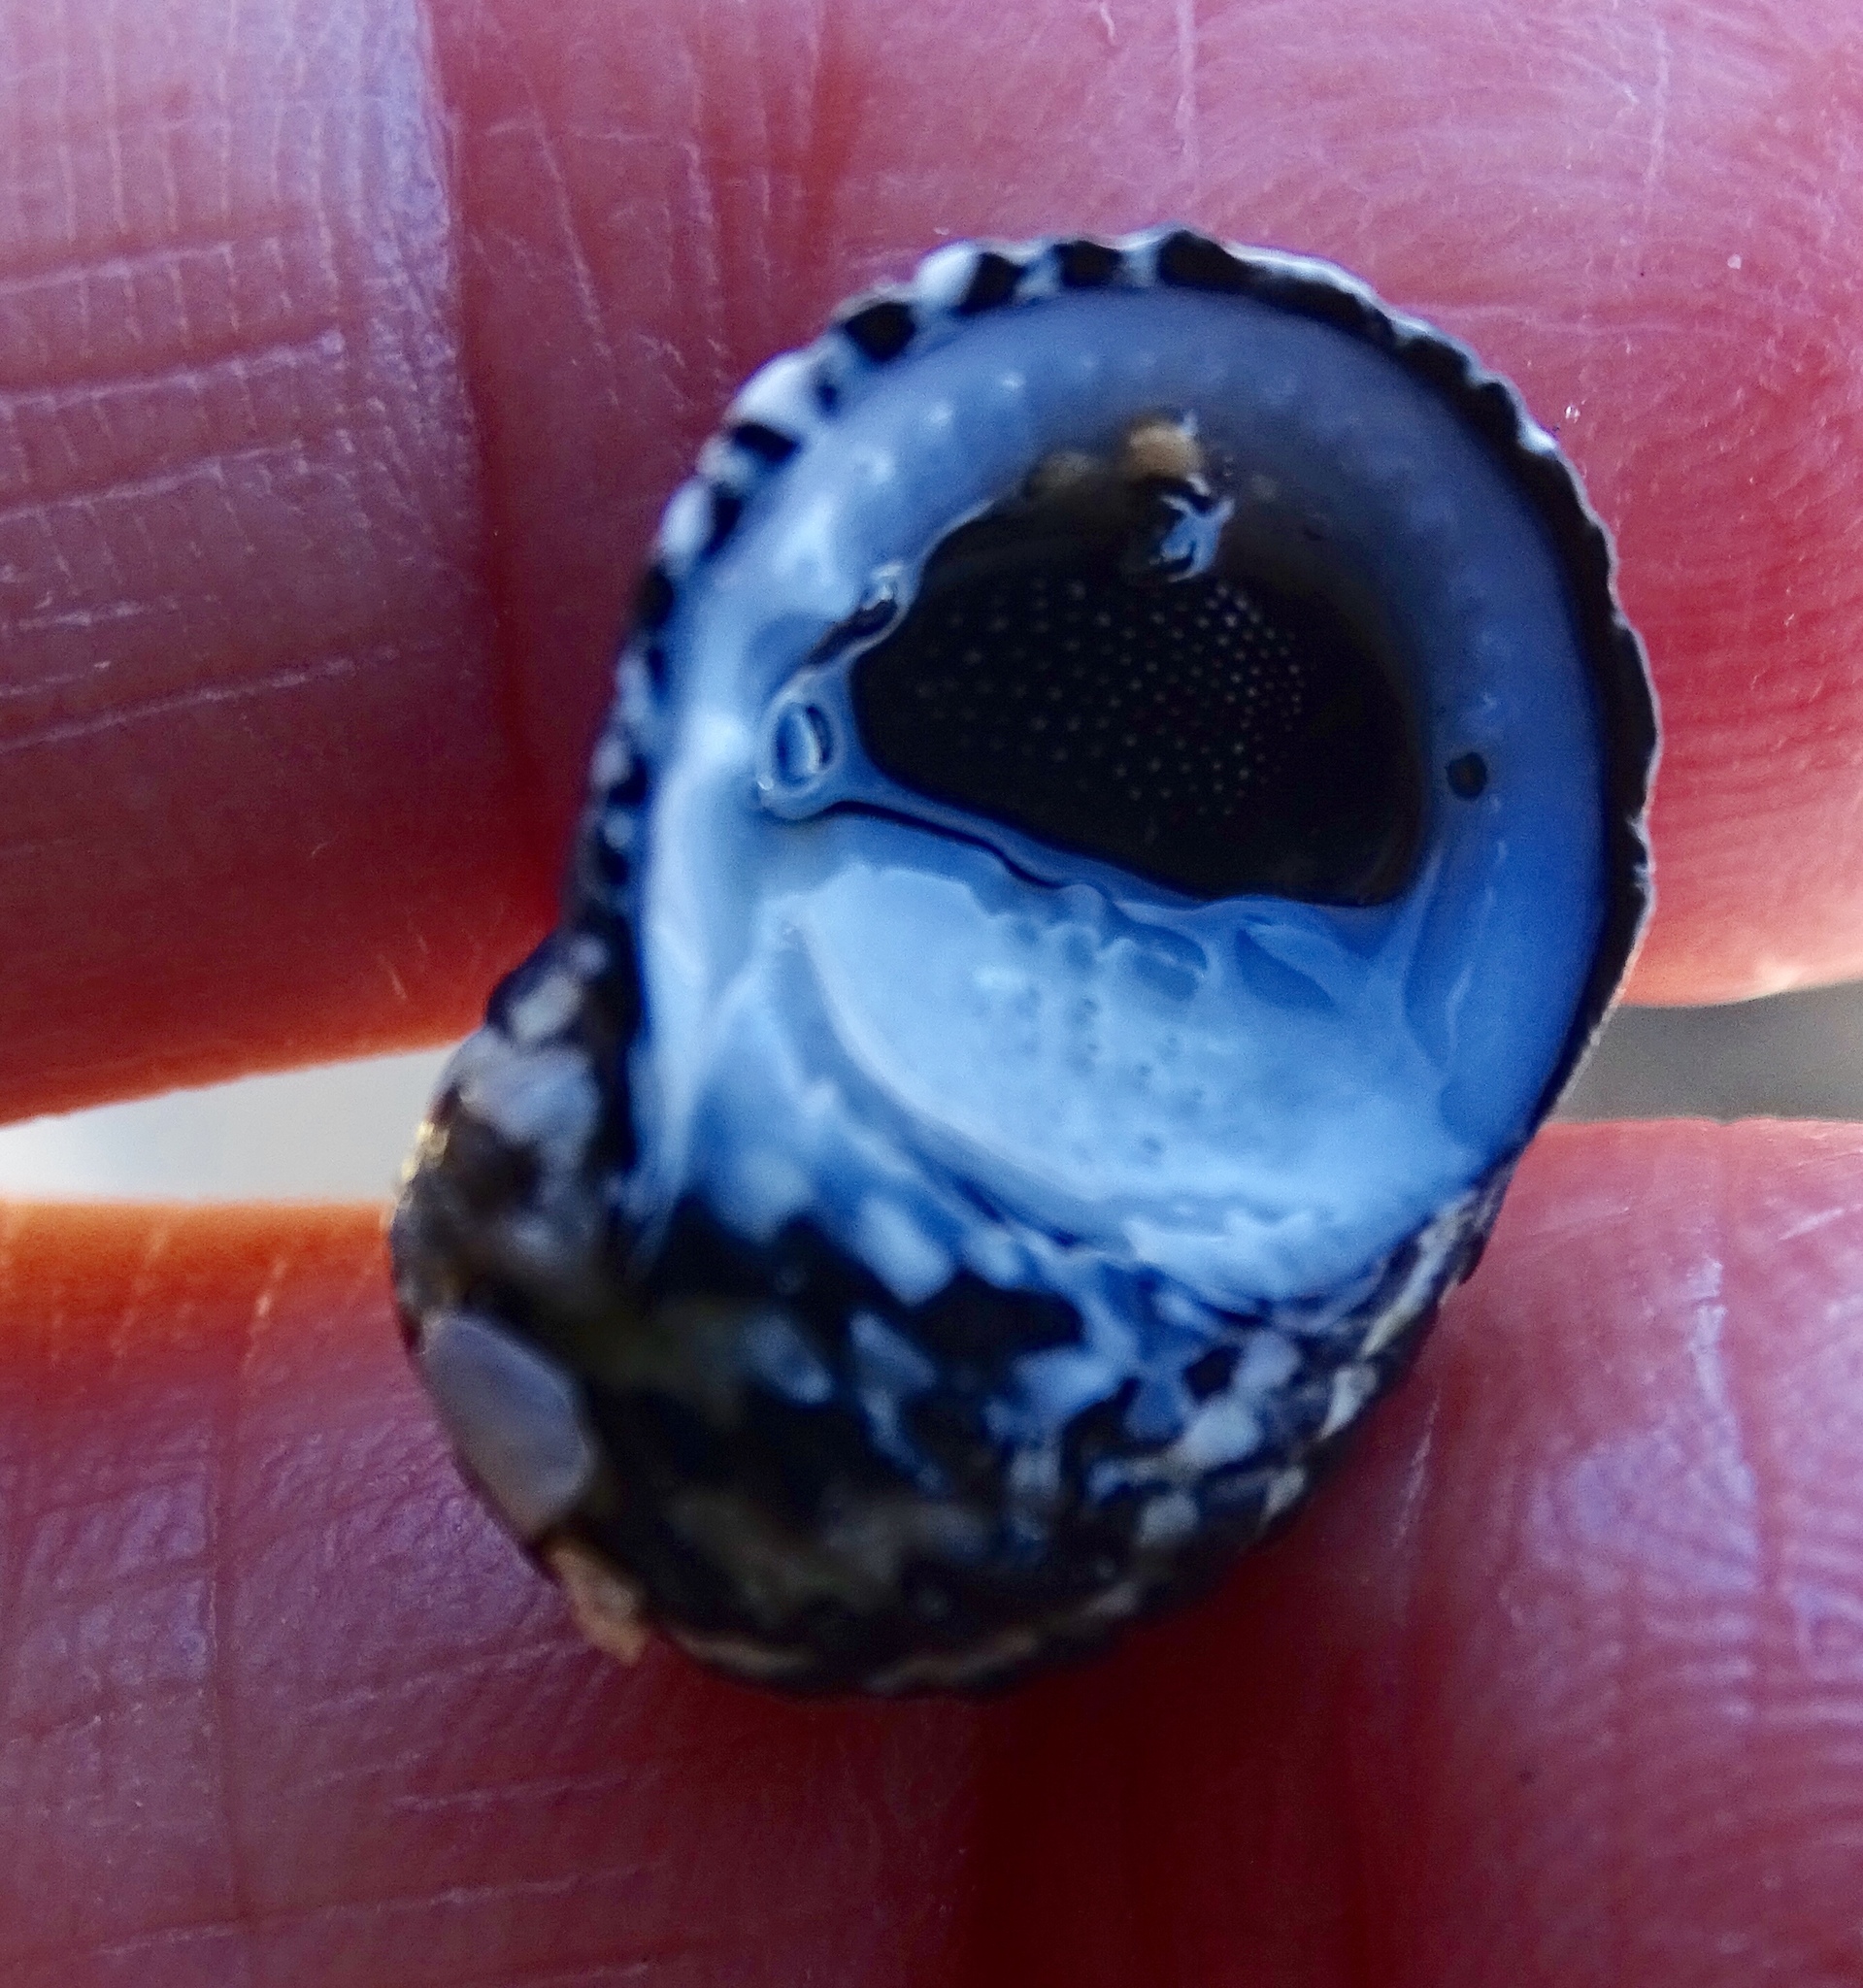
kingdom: Animalia
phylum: Mollusca
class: Gastropoda
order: Cycloneritida
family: Neritidae
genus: Nerita
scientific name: Nerita tessellata
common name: Checkered nerite
